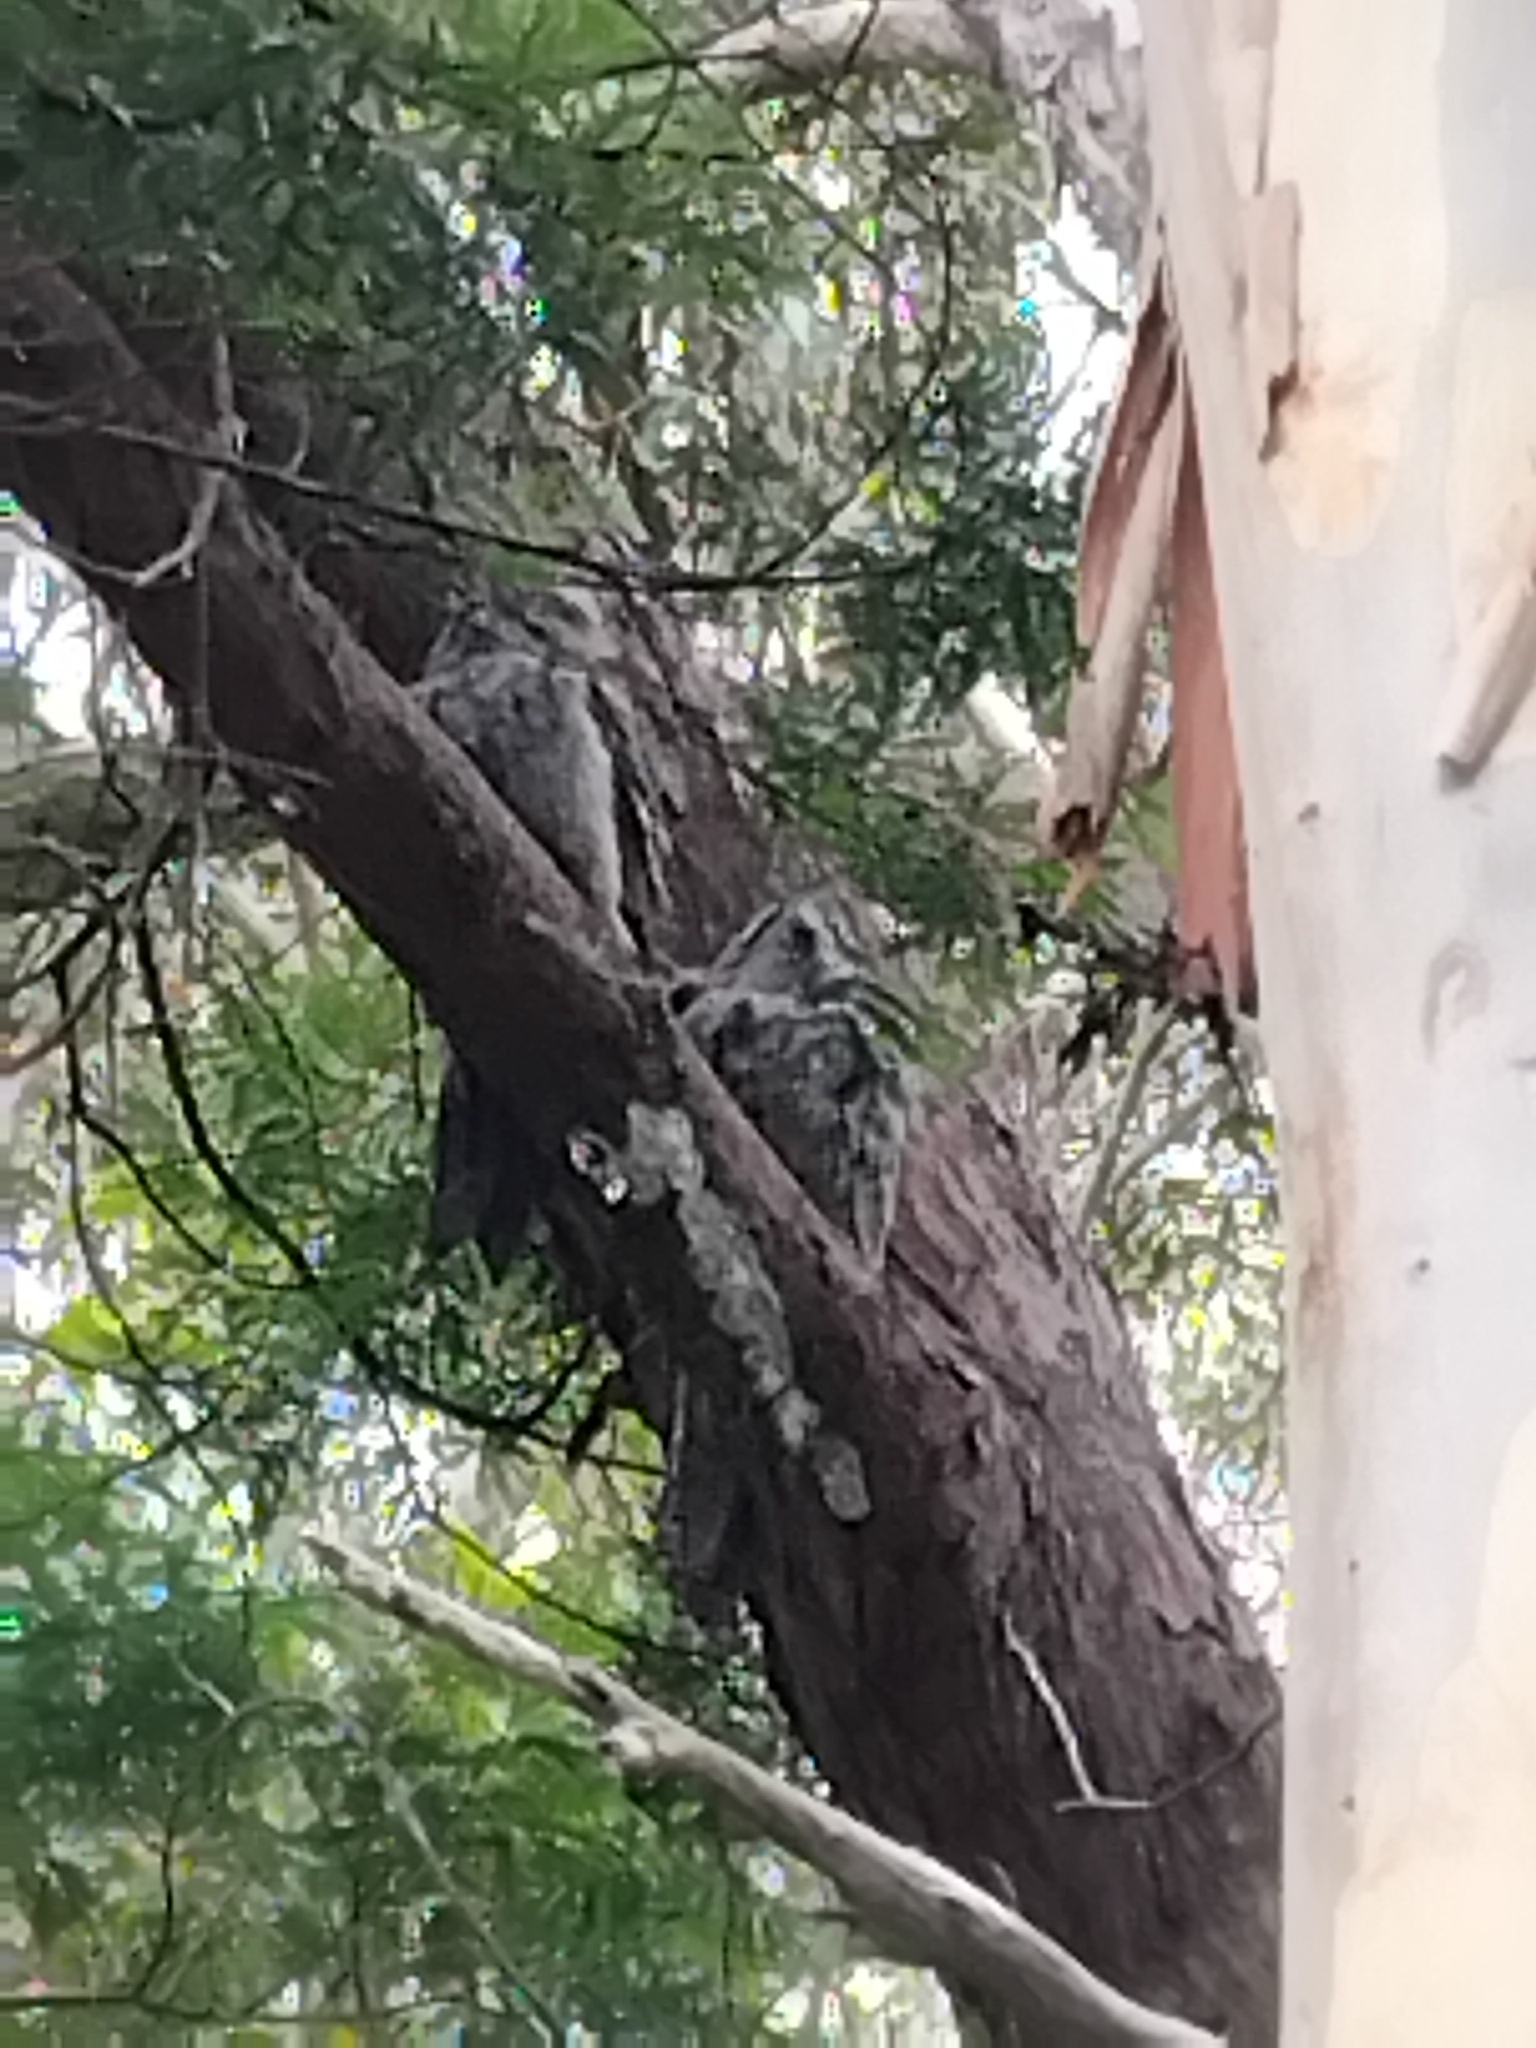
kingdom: Animalia
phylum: Chordata
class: Aves
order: Caprimulgiformes
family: Podargidae
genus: Podargus
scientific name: Podargus strigoides
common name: Tawny frogmouth
